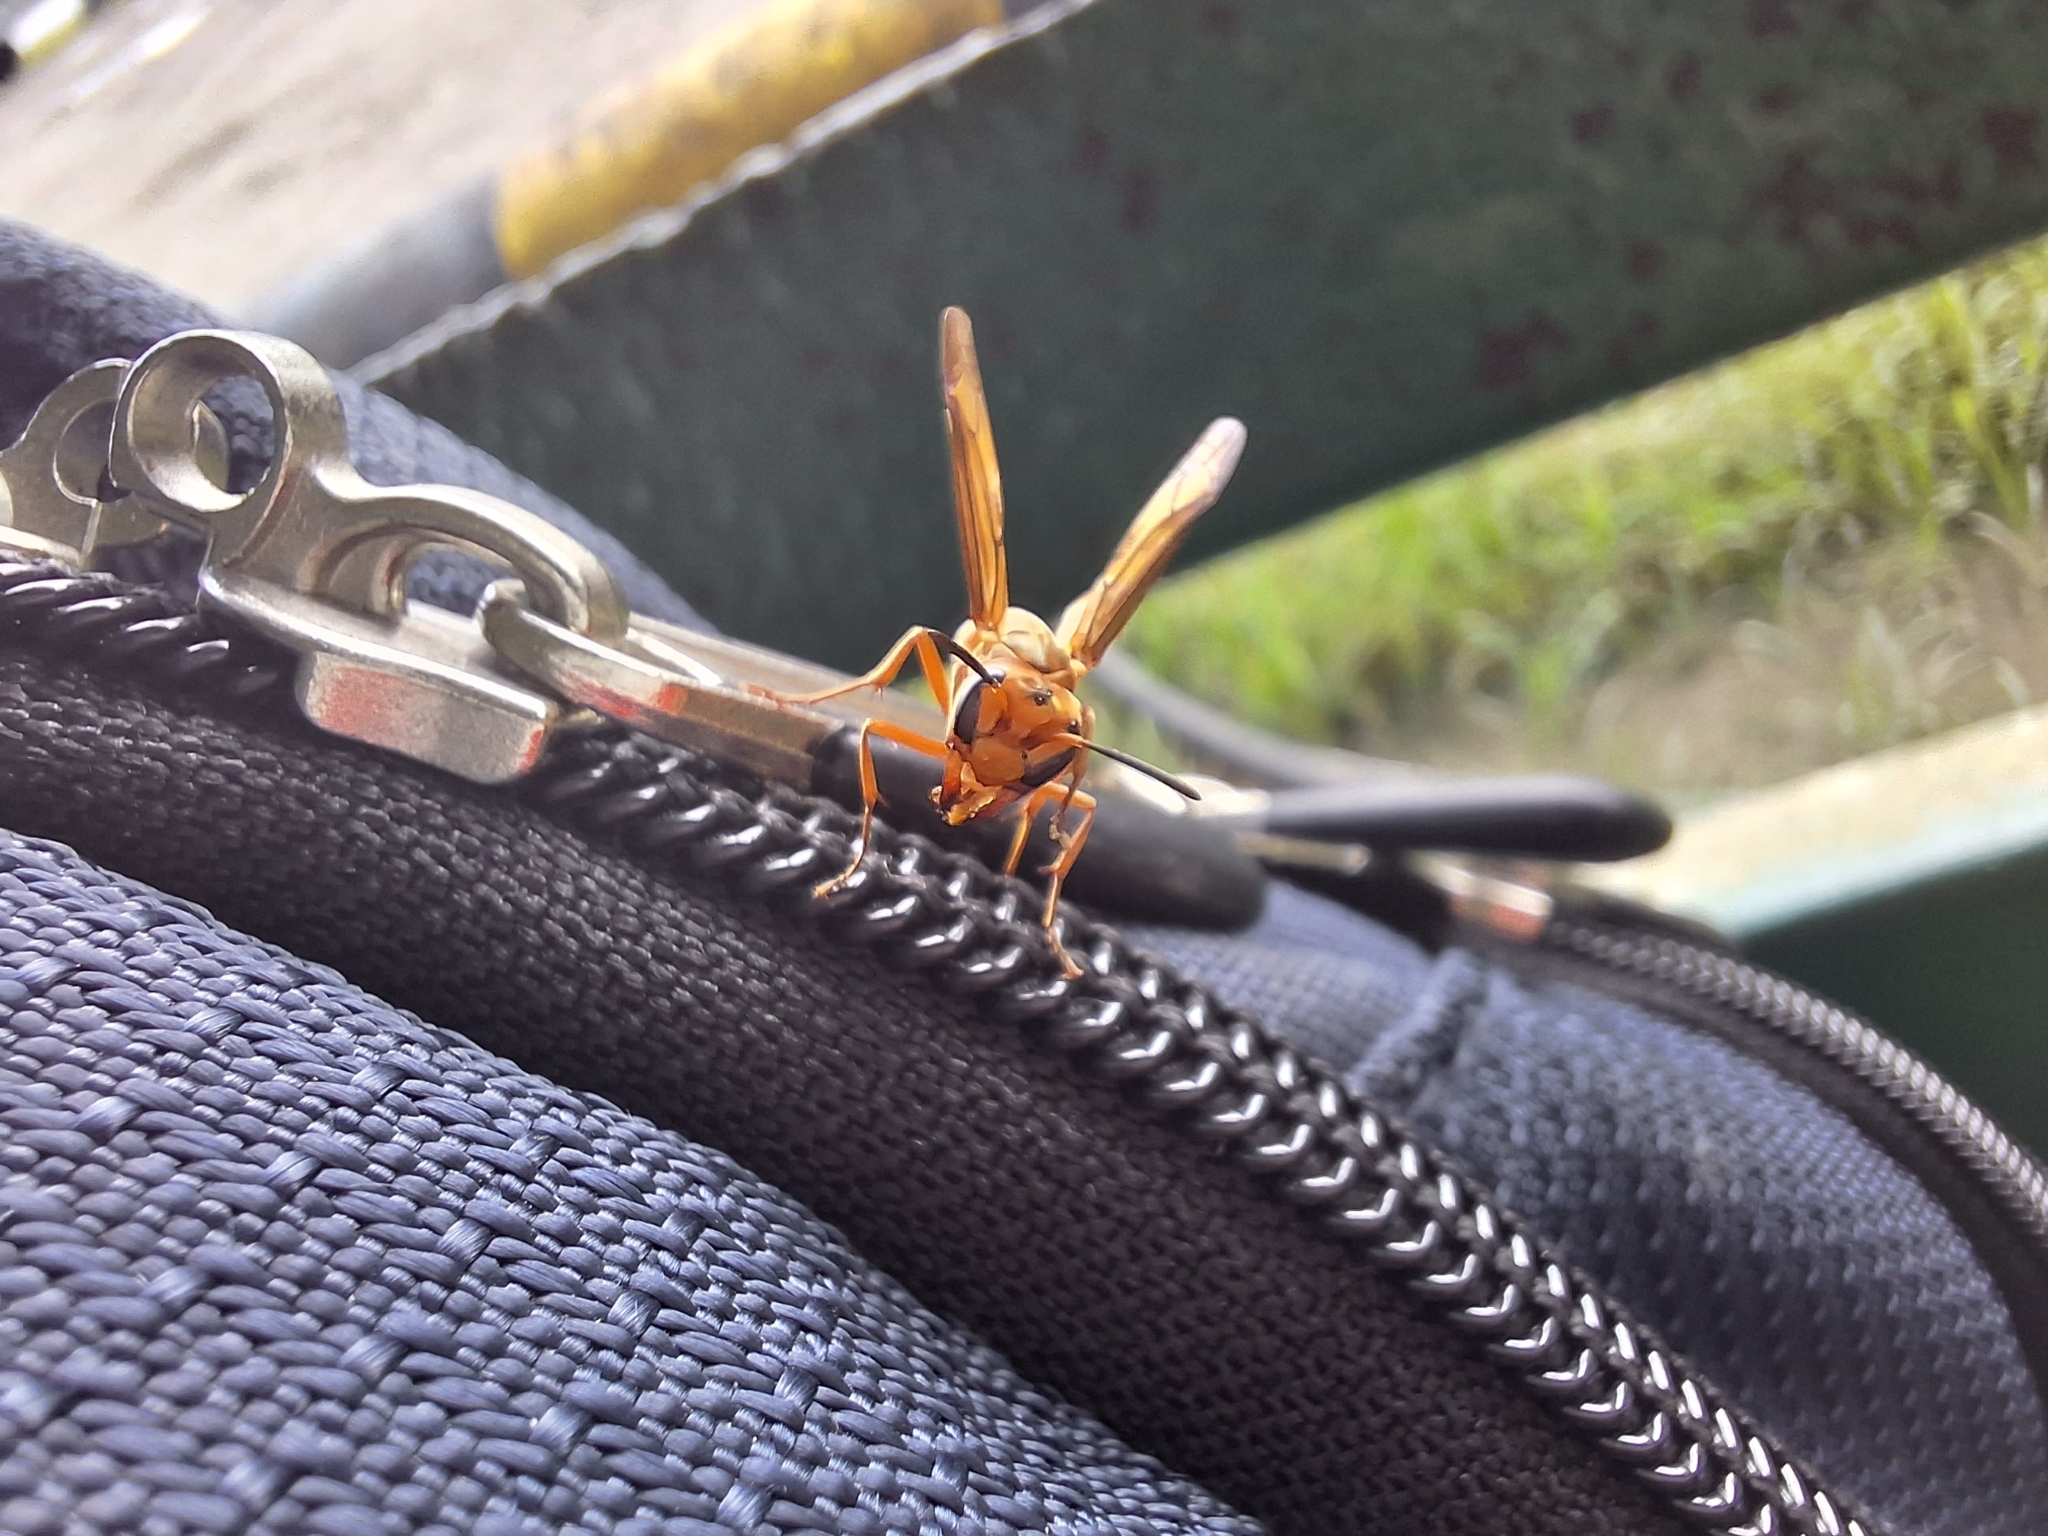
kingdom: Animalia
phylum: Arthropoda
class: Insecta
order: Hymenoptera
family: Vespidae
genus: Synoeca
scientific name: Synoeca virginea
